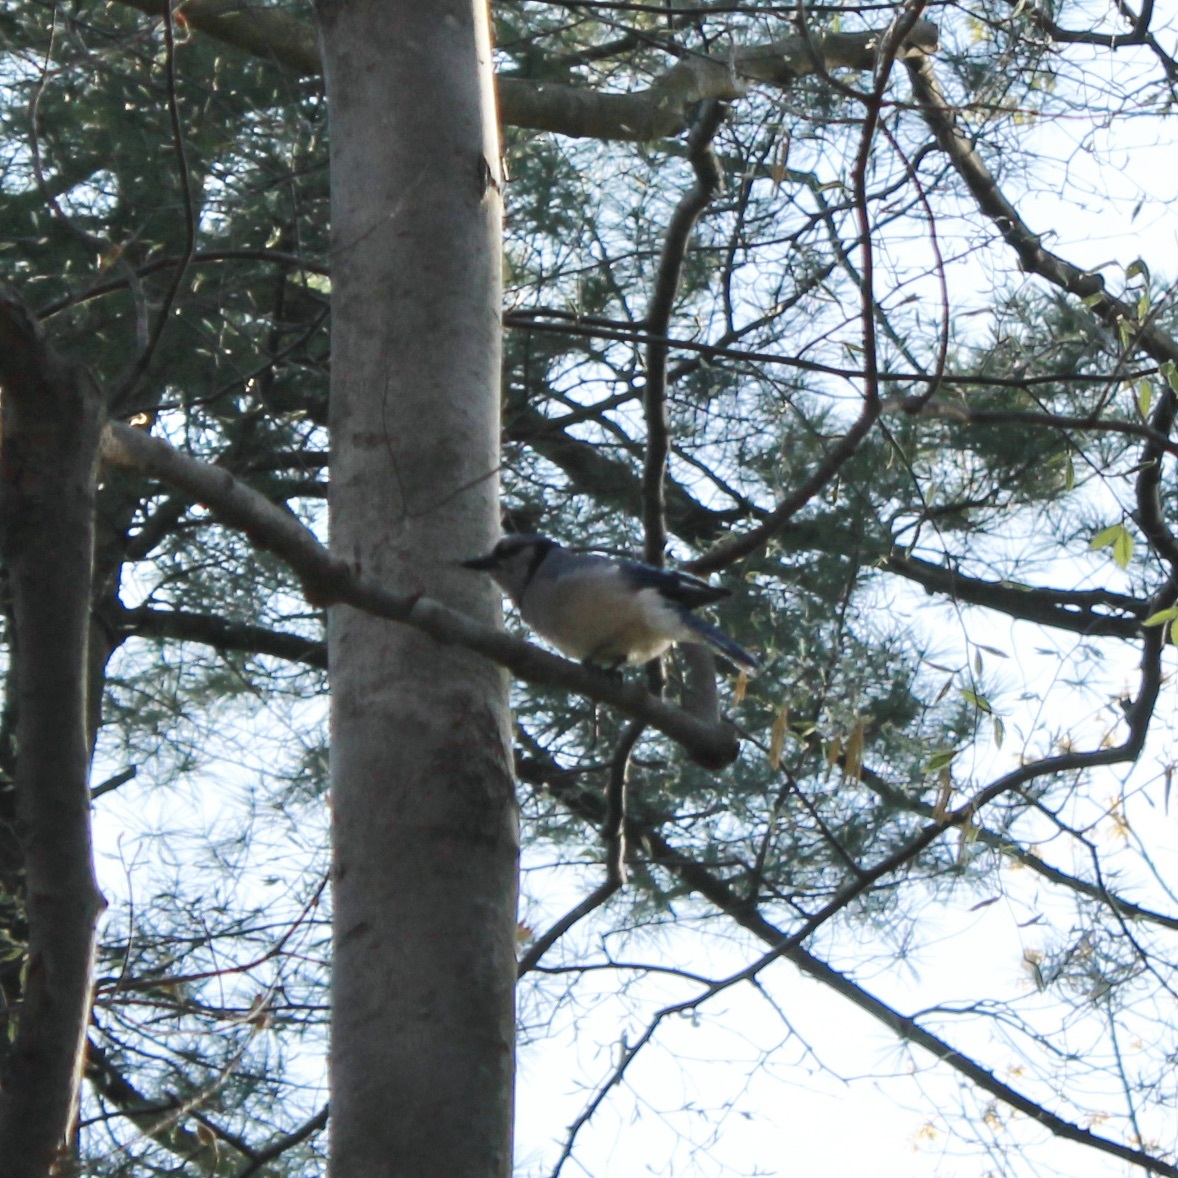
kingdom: Animalia
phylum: Chordata
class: Aves
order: Passeriformes
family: Corvidae
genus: Cyanocitta
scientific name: Cyanocitta cristata
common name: Blue jay
